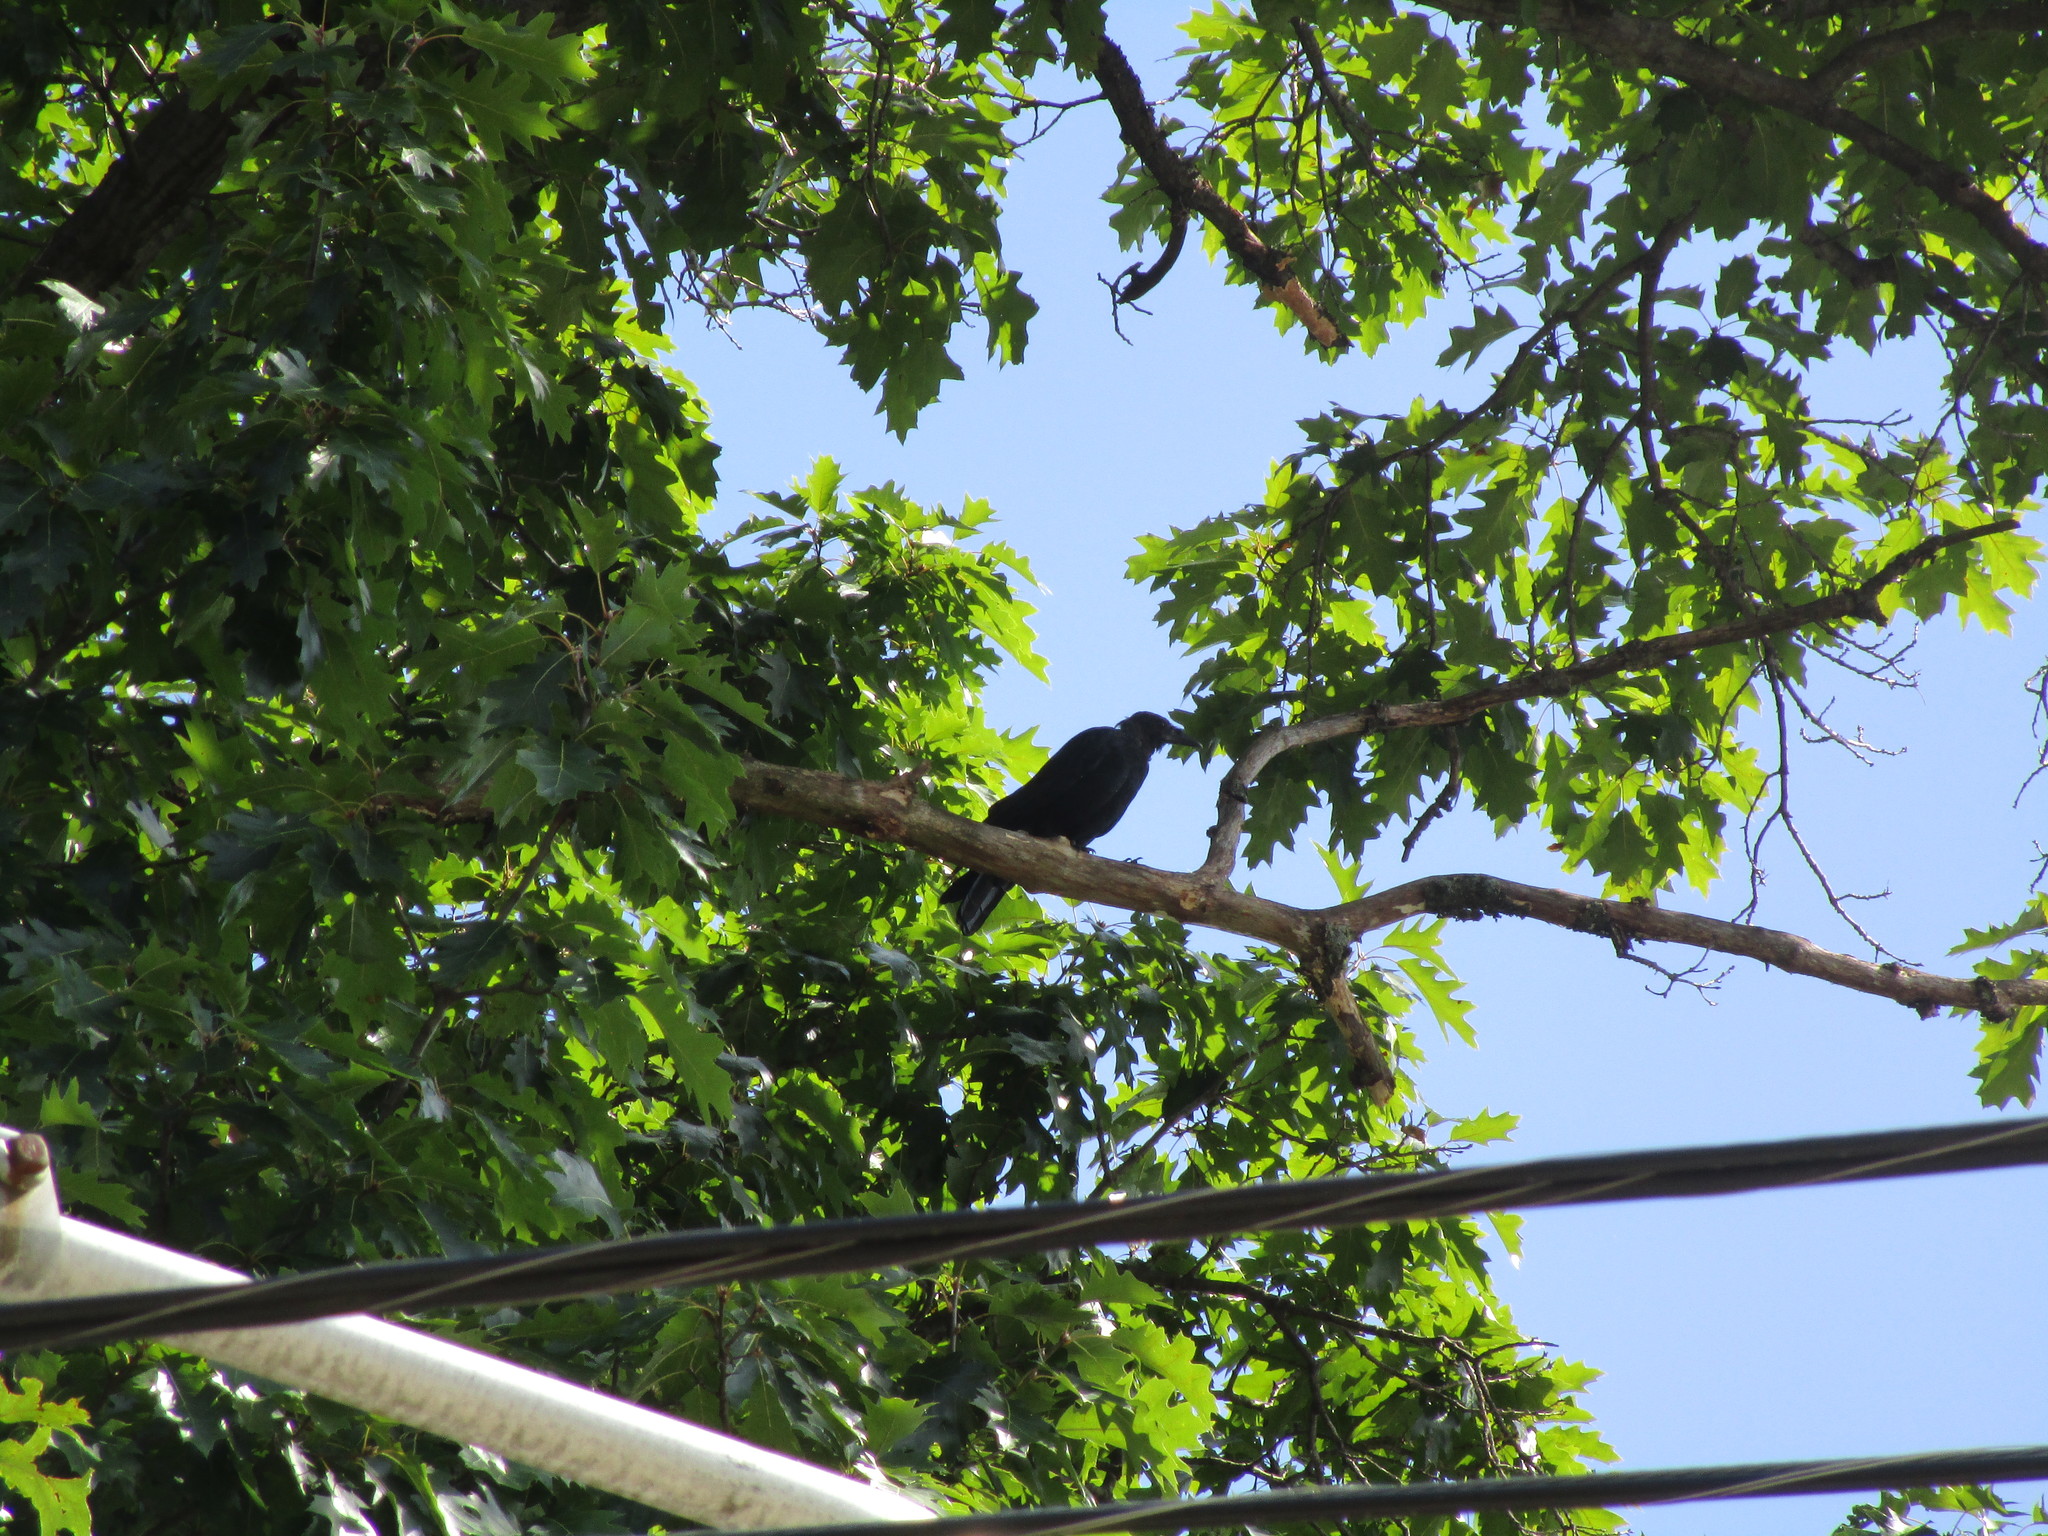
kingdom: Animalia
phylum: Chordata
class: Aves
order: Passeriformes
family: Corvidae
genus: Corvus
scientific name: Corvus brachyrhynchos
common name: American crow
